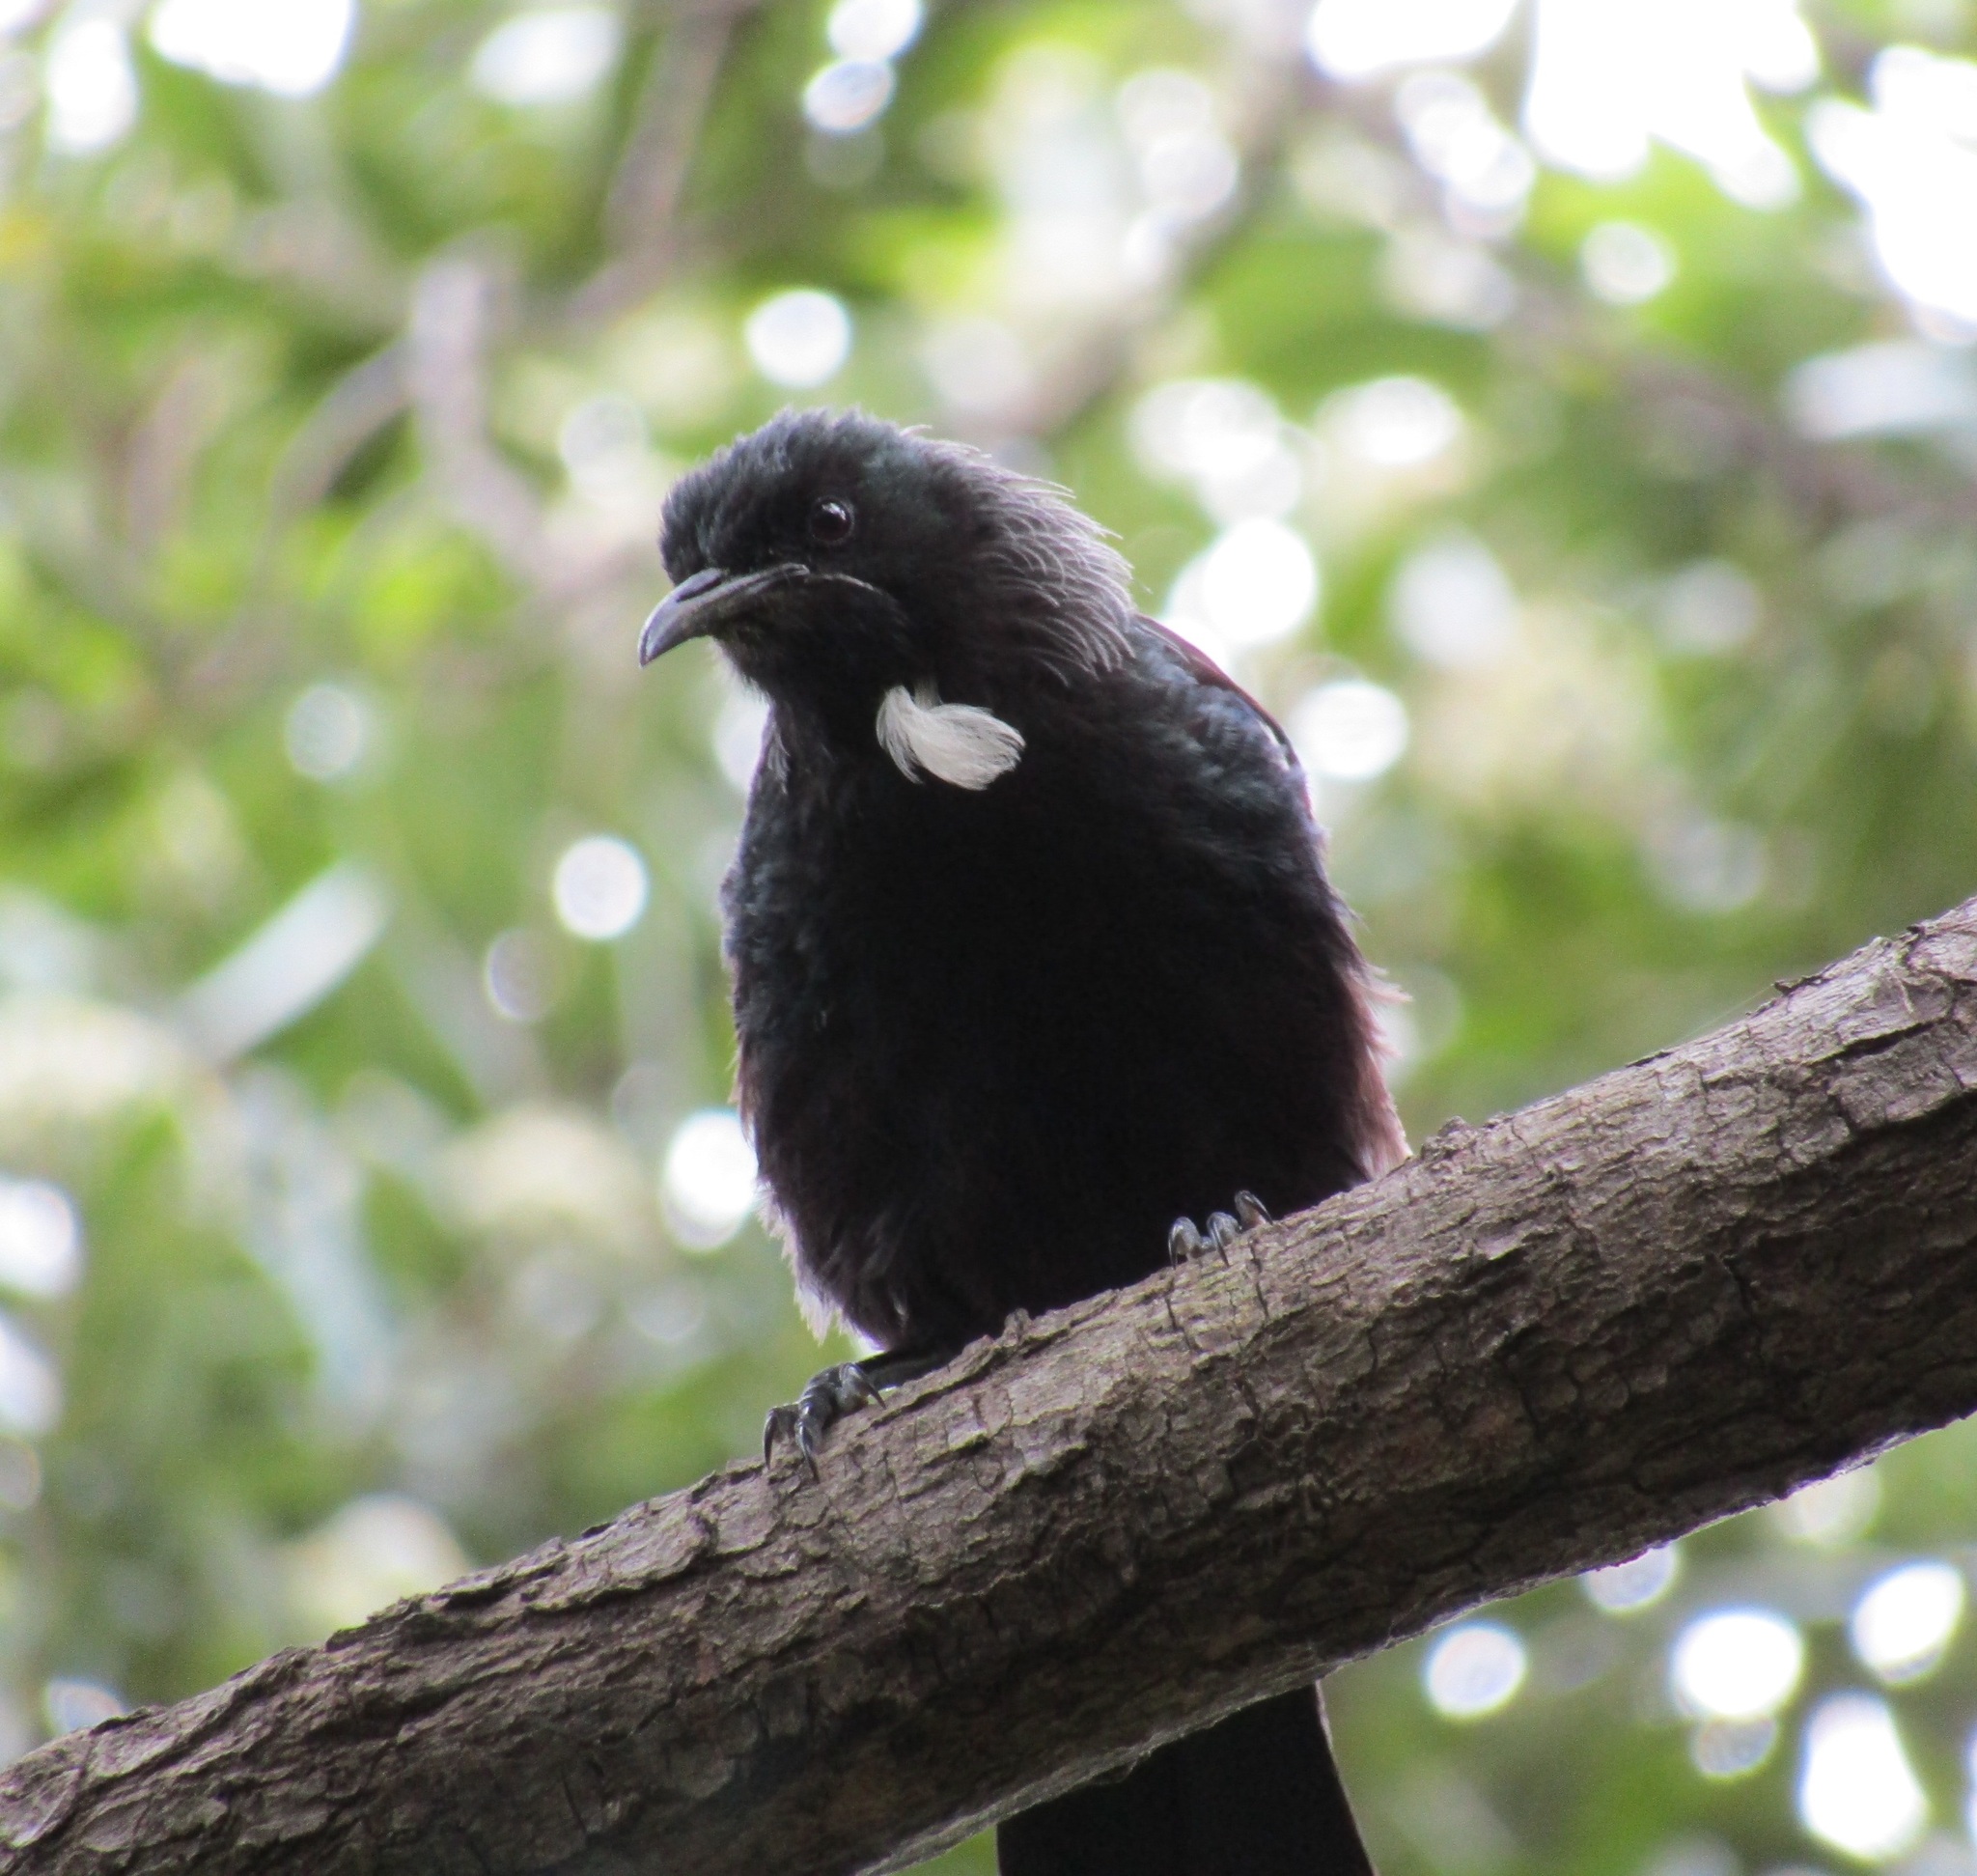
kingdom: Animalia
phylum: Chordata
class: Aves
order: Passeriformes
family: Meliphagidae
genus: Prosthemadera
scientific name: Prosthemadera novaeseelandiae
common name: Tui
